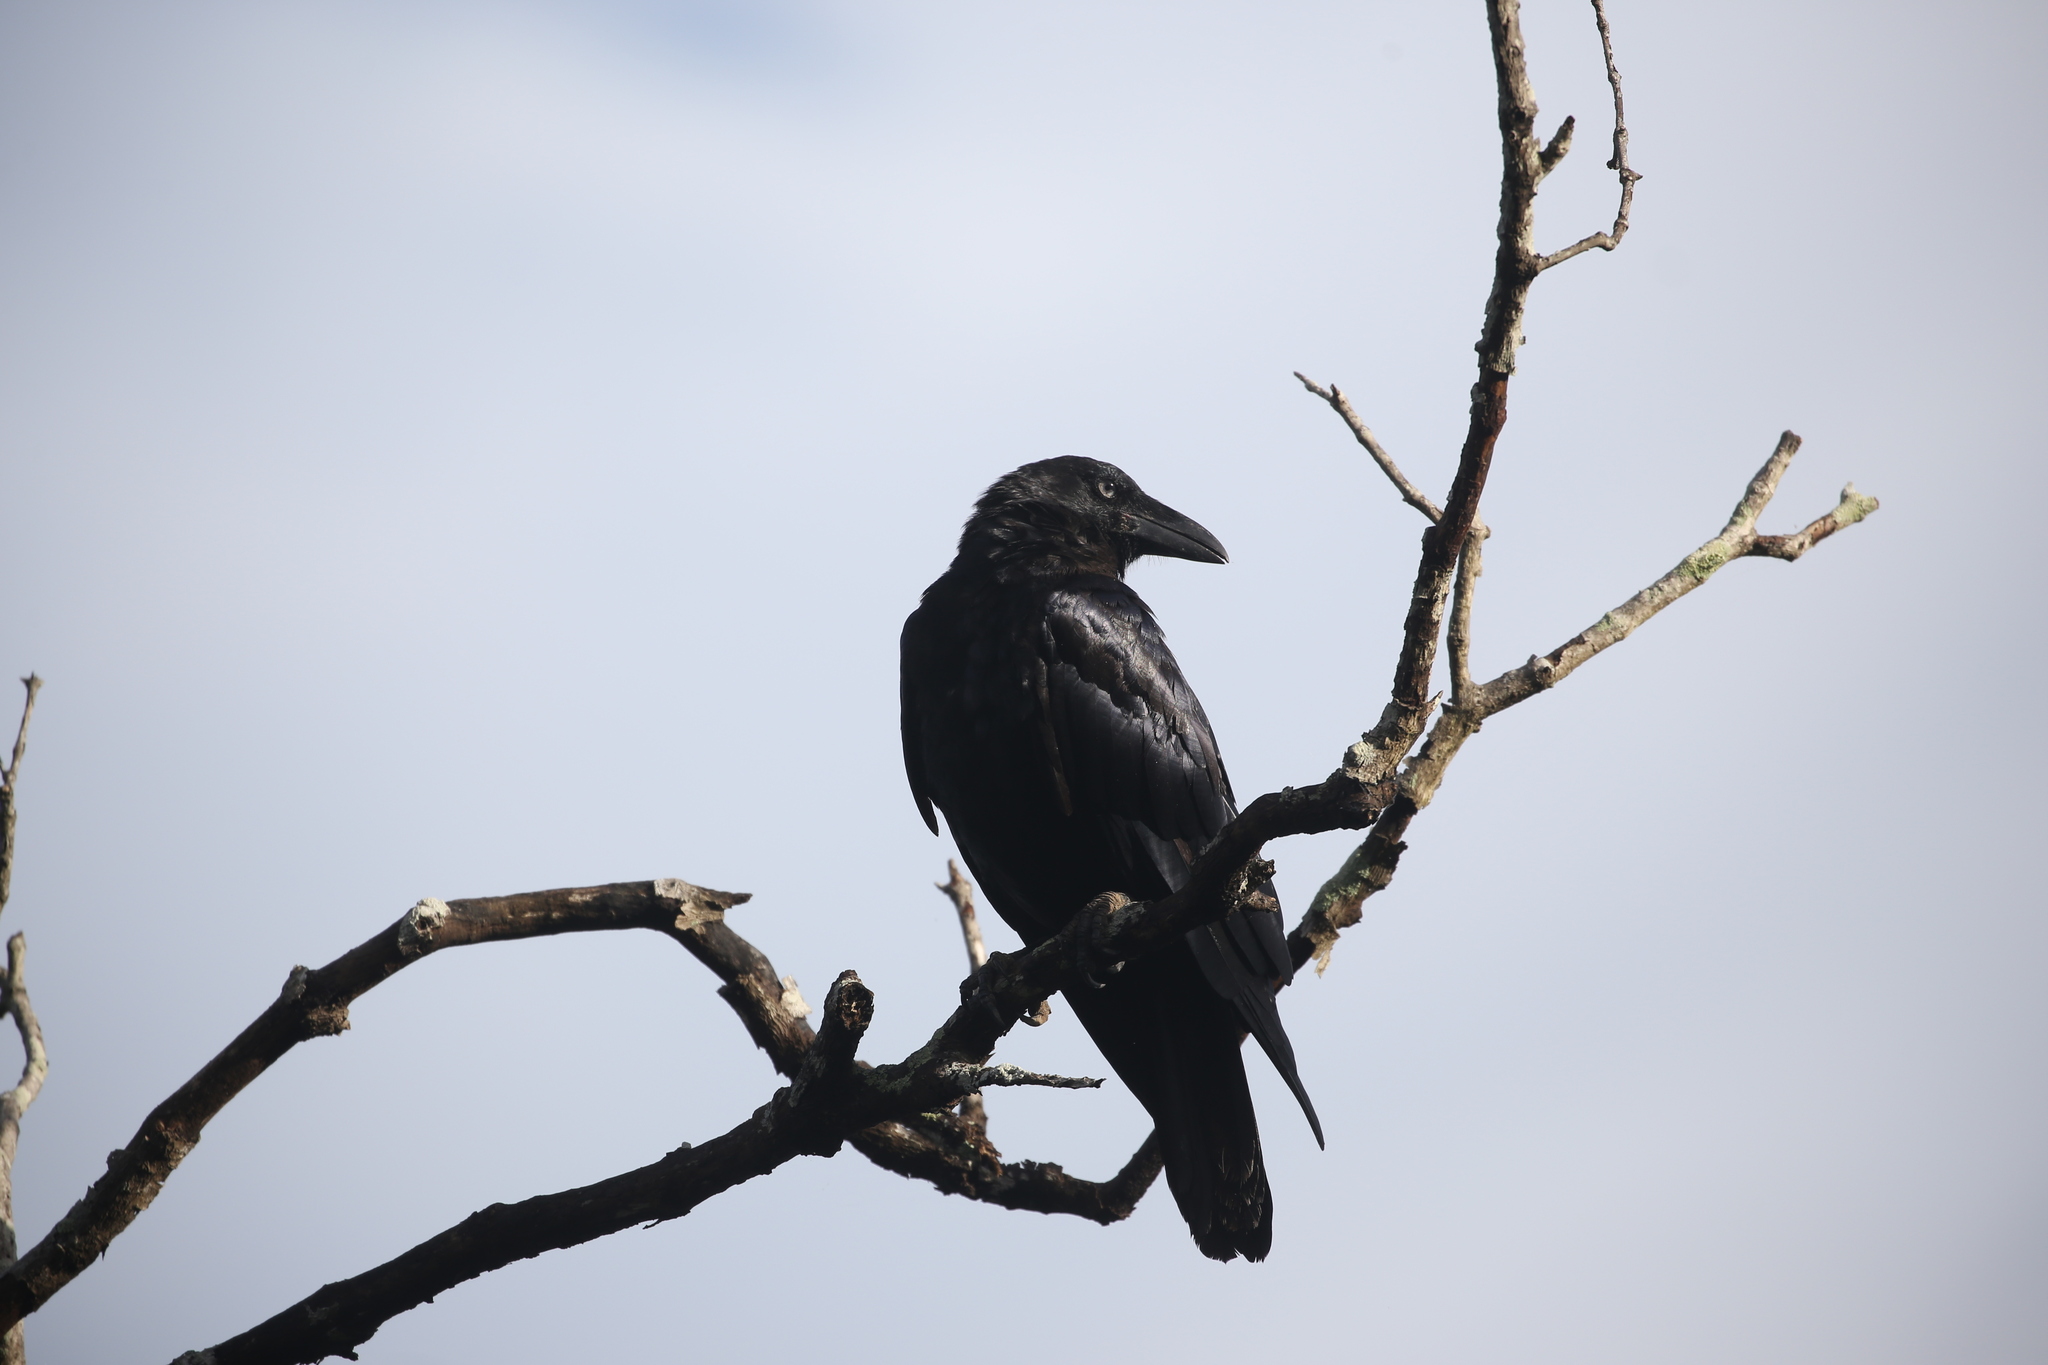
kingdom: Animalia
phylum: Chordata
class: Aves
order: Passeriformes
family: Corvidae
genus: Corvus
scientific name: Corvus orru
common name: Torresian crow
